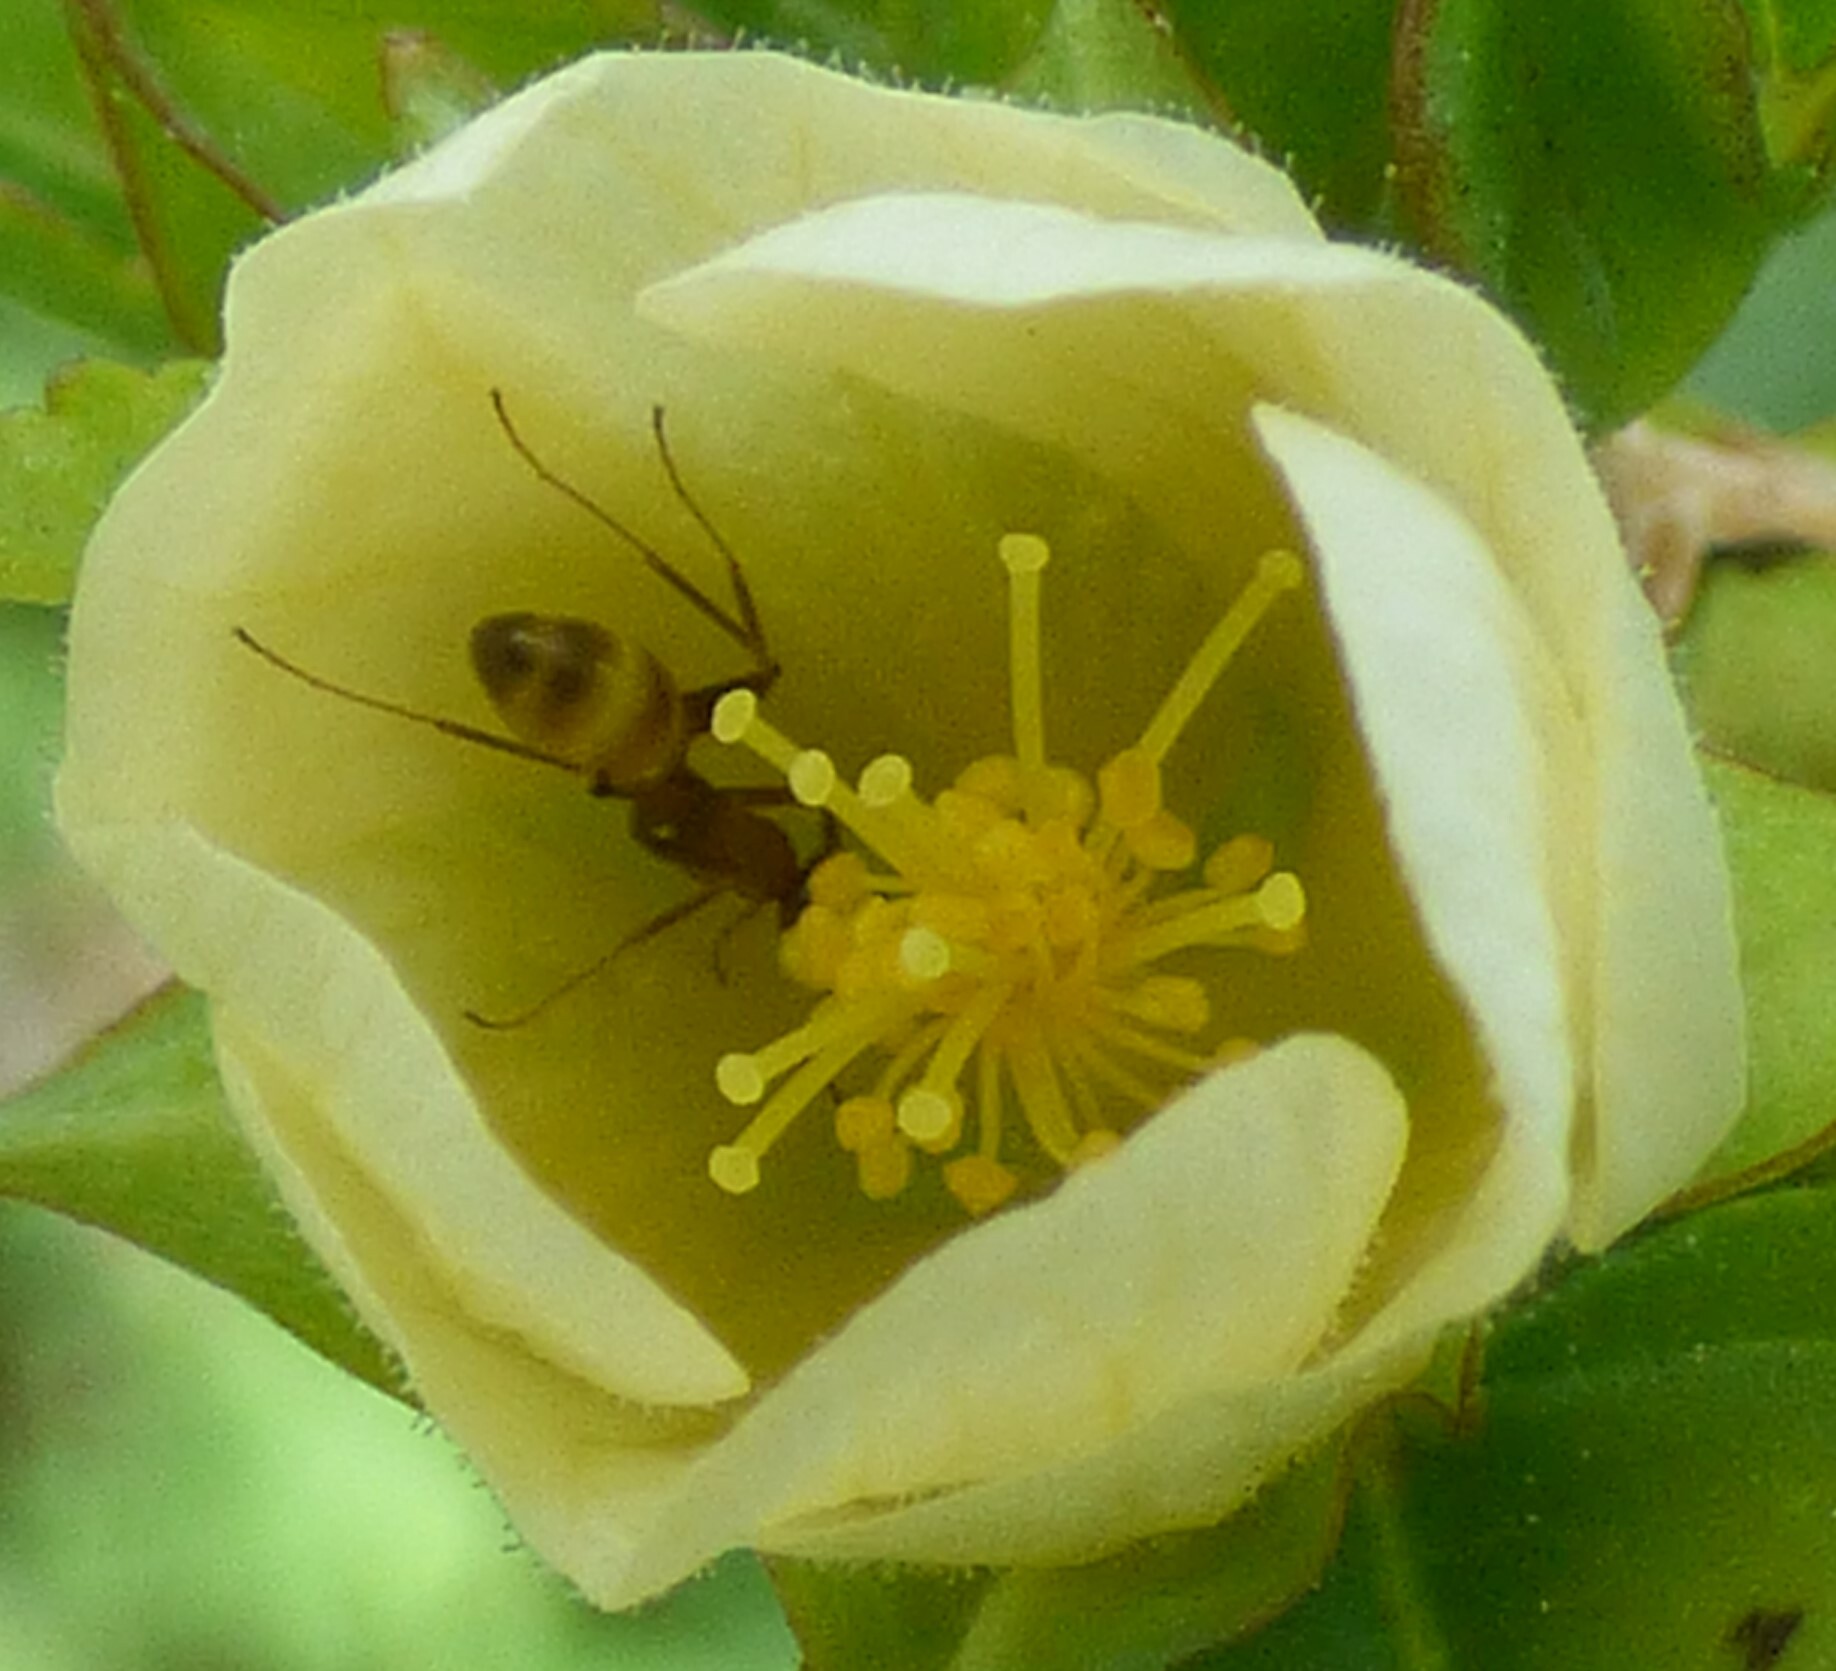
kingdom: Animalia
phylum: Arthropoda
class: Insecta
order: Hymenoptera
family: Formicidae
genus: Dorymyrmex
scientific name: Dorymyrmex bureni
